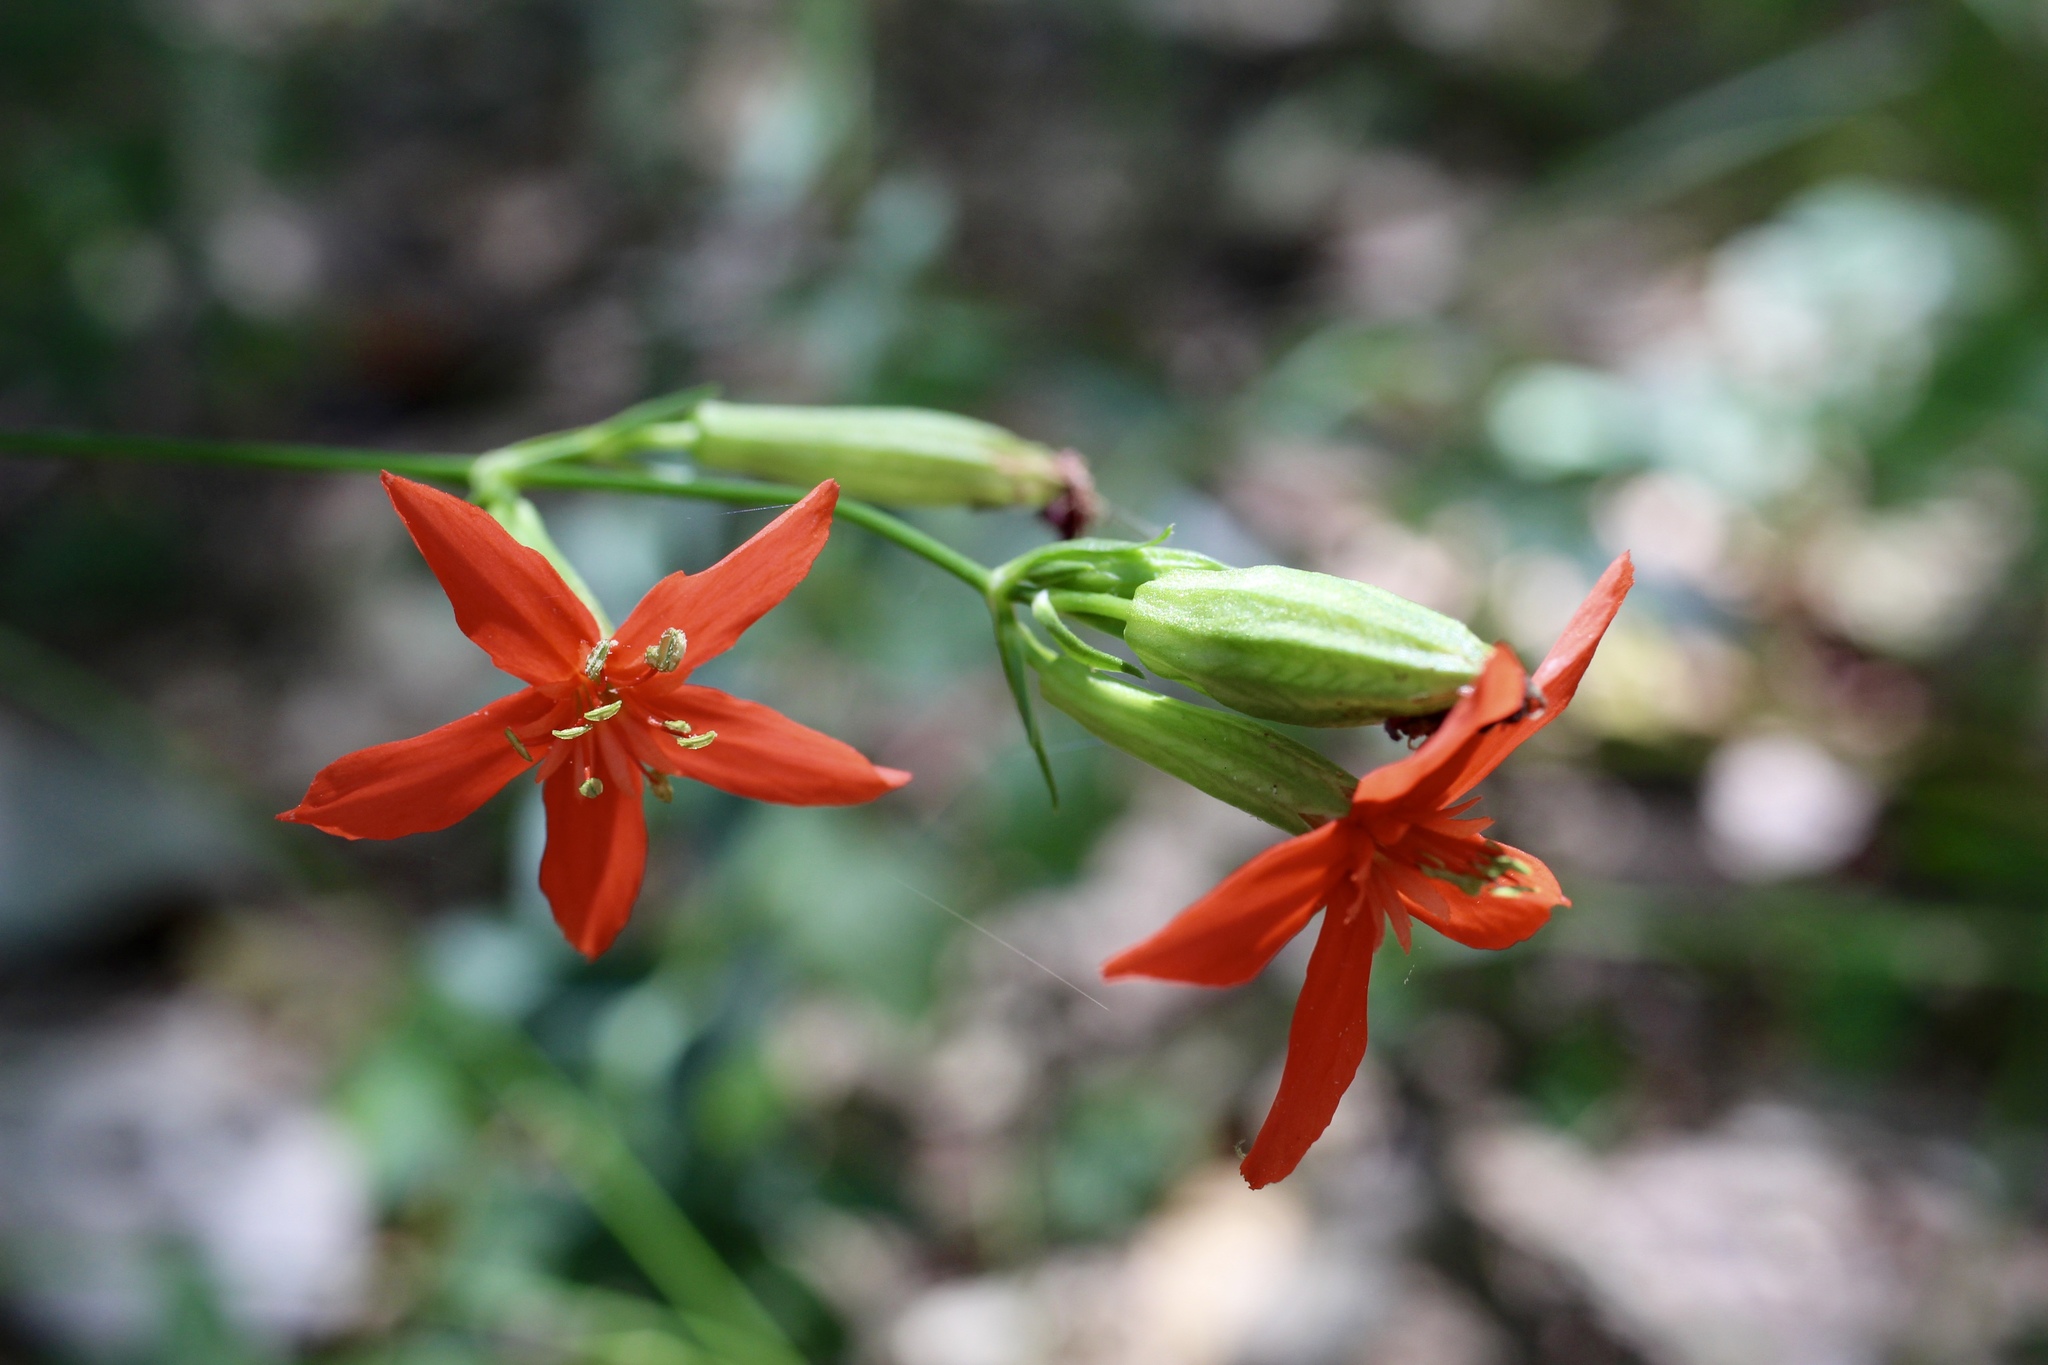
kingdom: Plantae
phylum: Tracheophyta
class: Magnoliopsida
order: Caryophyllales
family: Caryophyllaceae
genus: Silene
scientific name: Silene subciliata
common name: Prairie fire-pink
